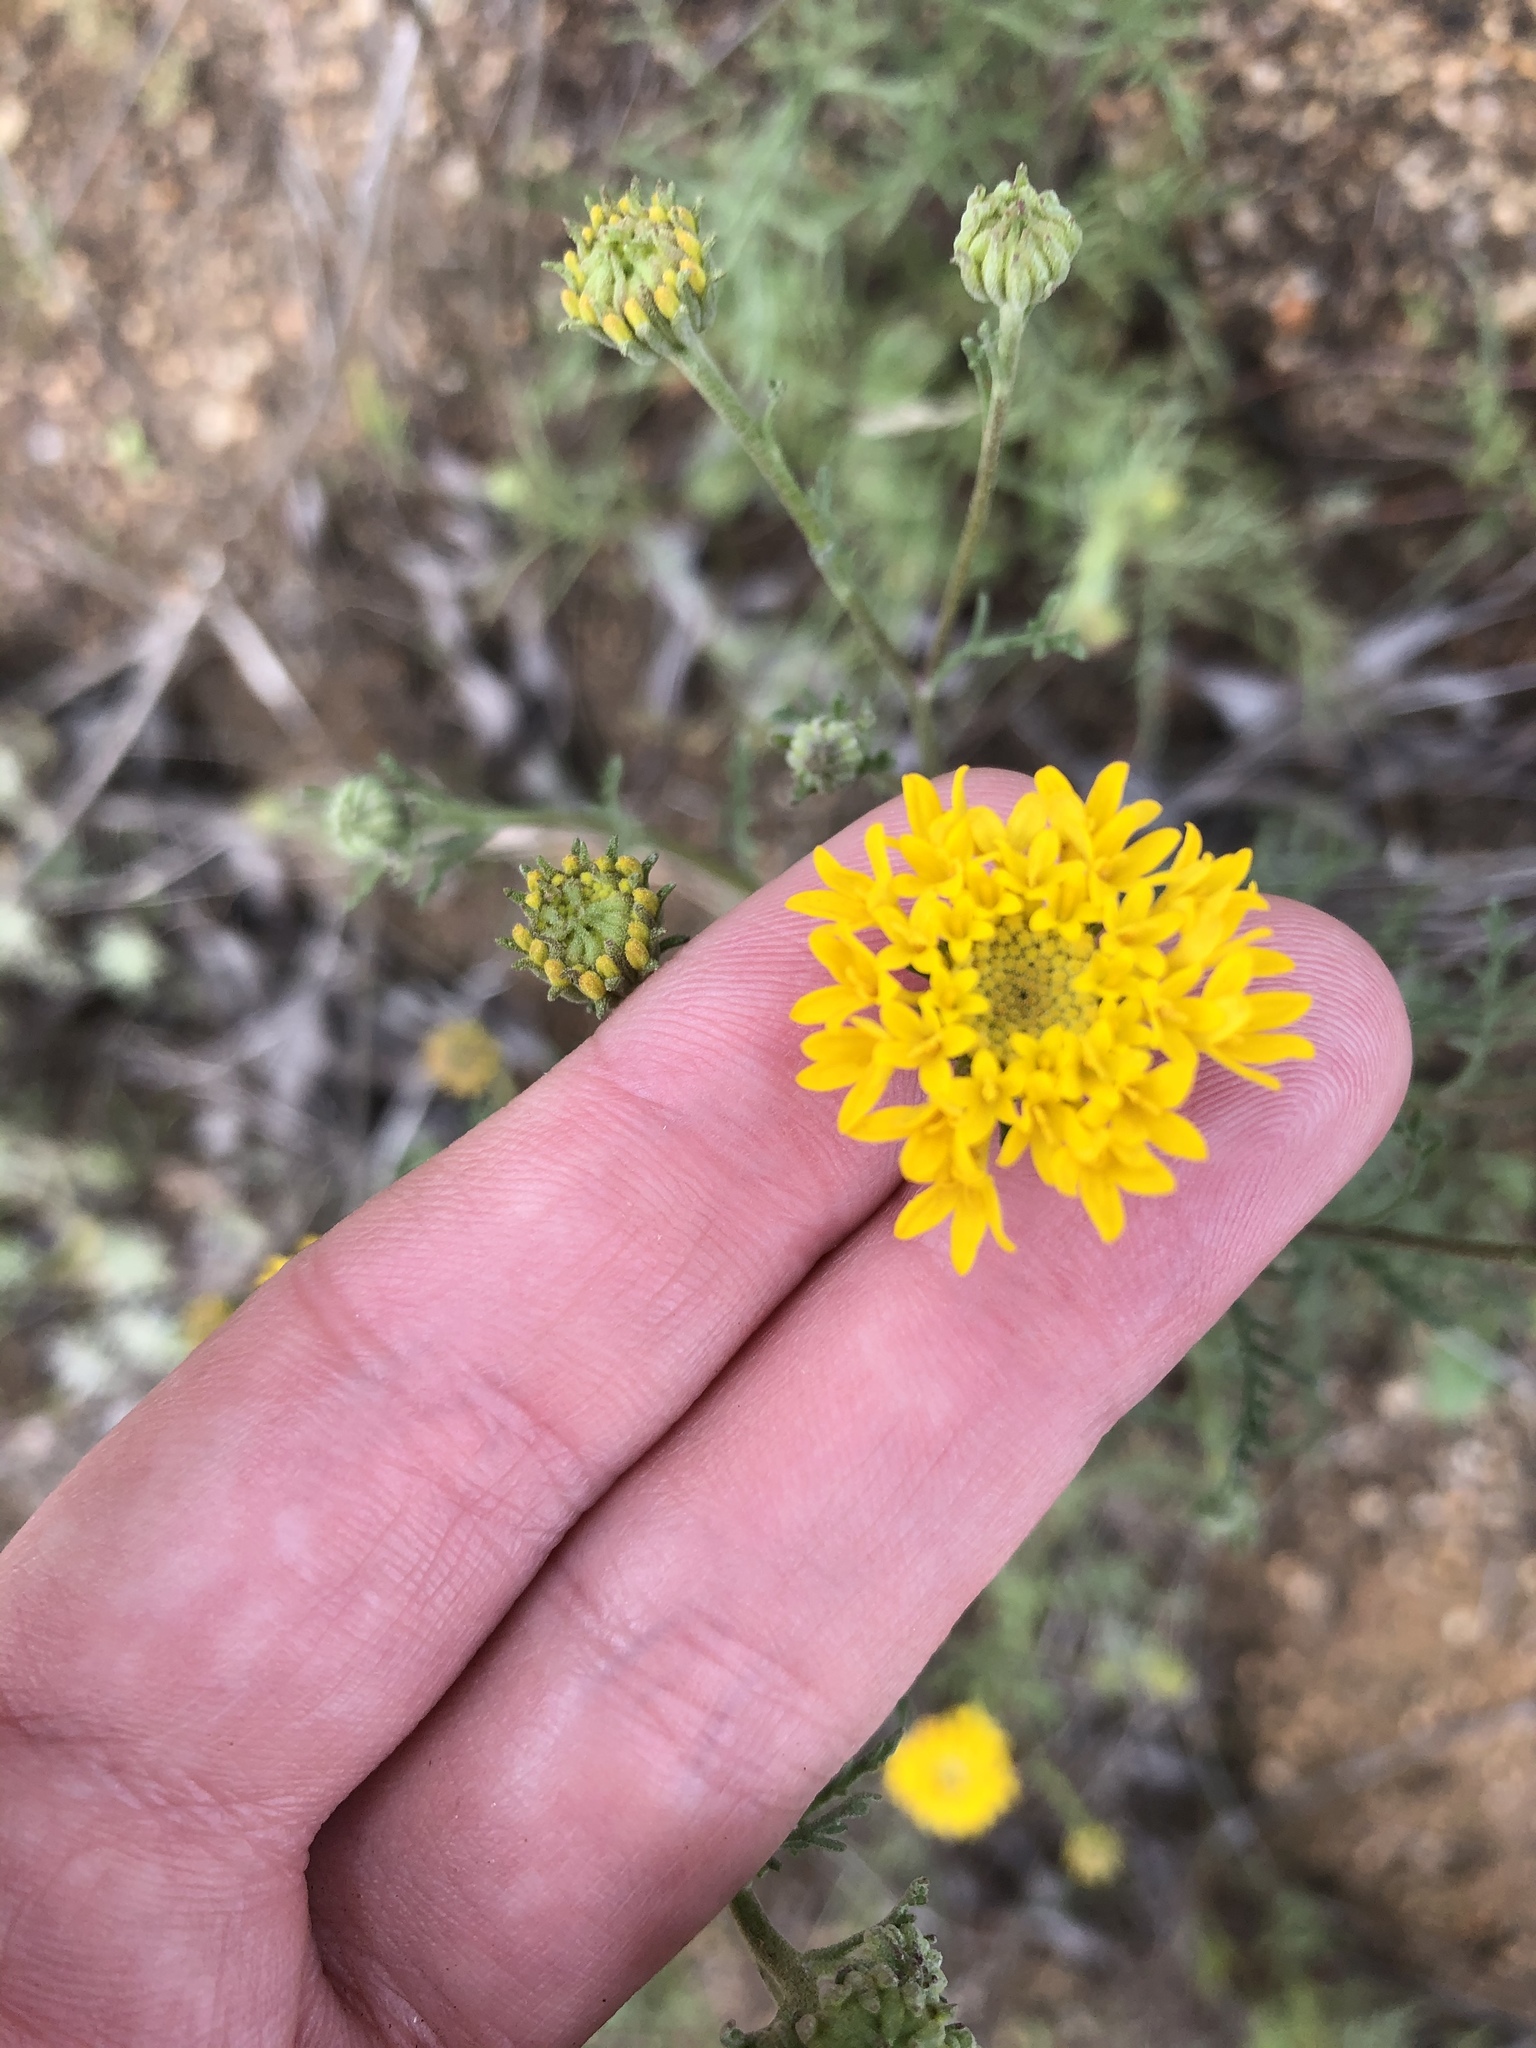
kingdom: Plantae
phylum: Tracheophyta
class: Magnoliopsida
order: Asterales
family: Asteraceae
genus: Chaenactis
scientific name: Chaenactis glabriuscula
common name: Yellow pincushion
